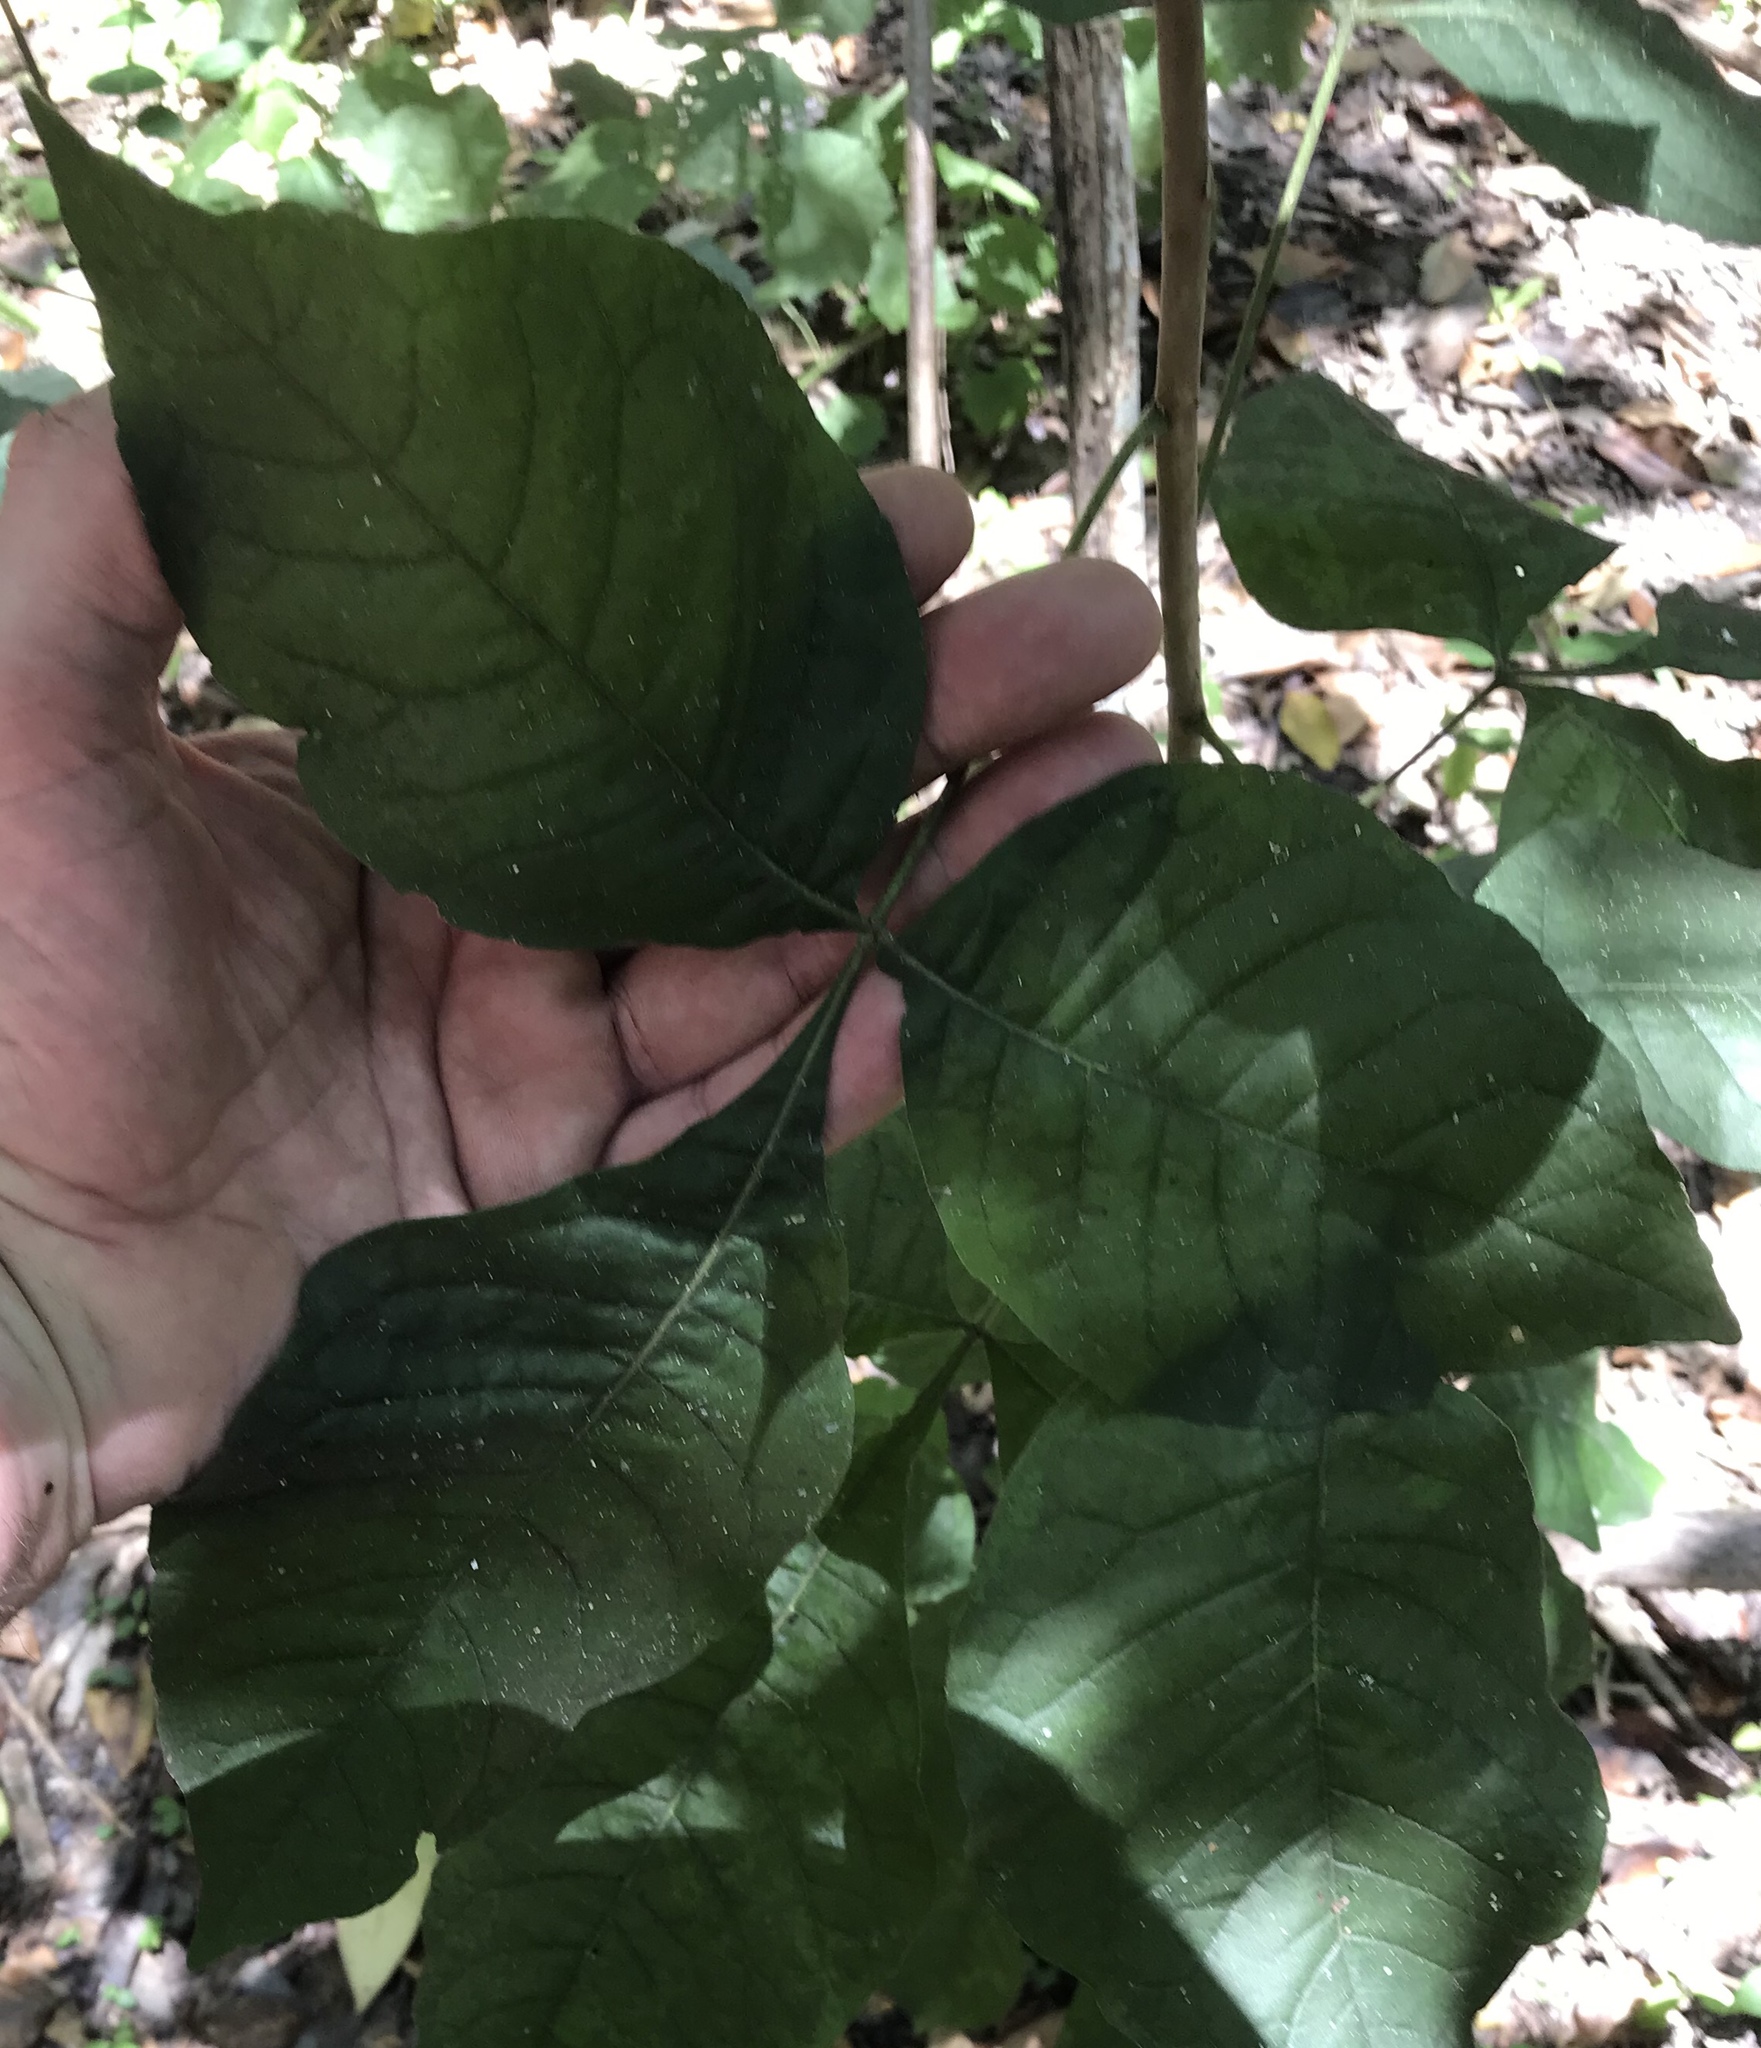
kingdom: Plantae
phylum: Tracheophyta
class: Magnoliopsida
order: Sapindales
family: Rutaceae
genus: Ptelea
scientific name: Ptelea trifoliata
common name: Common hop-tree
